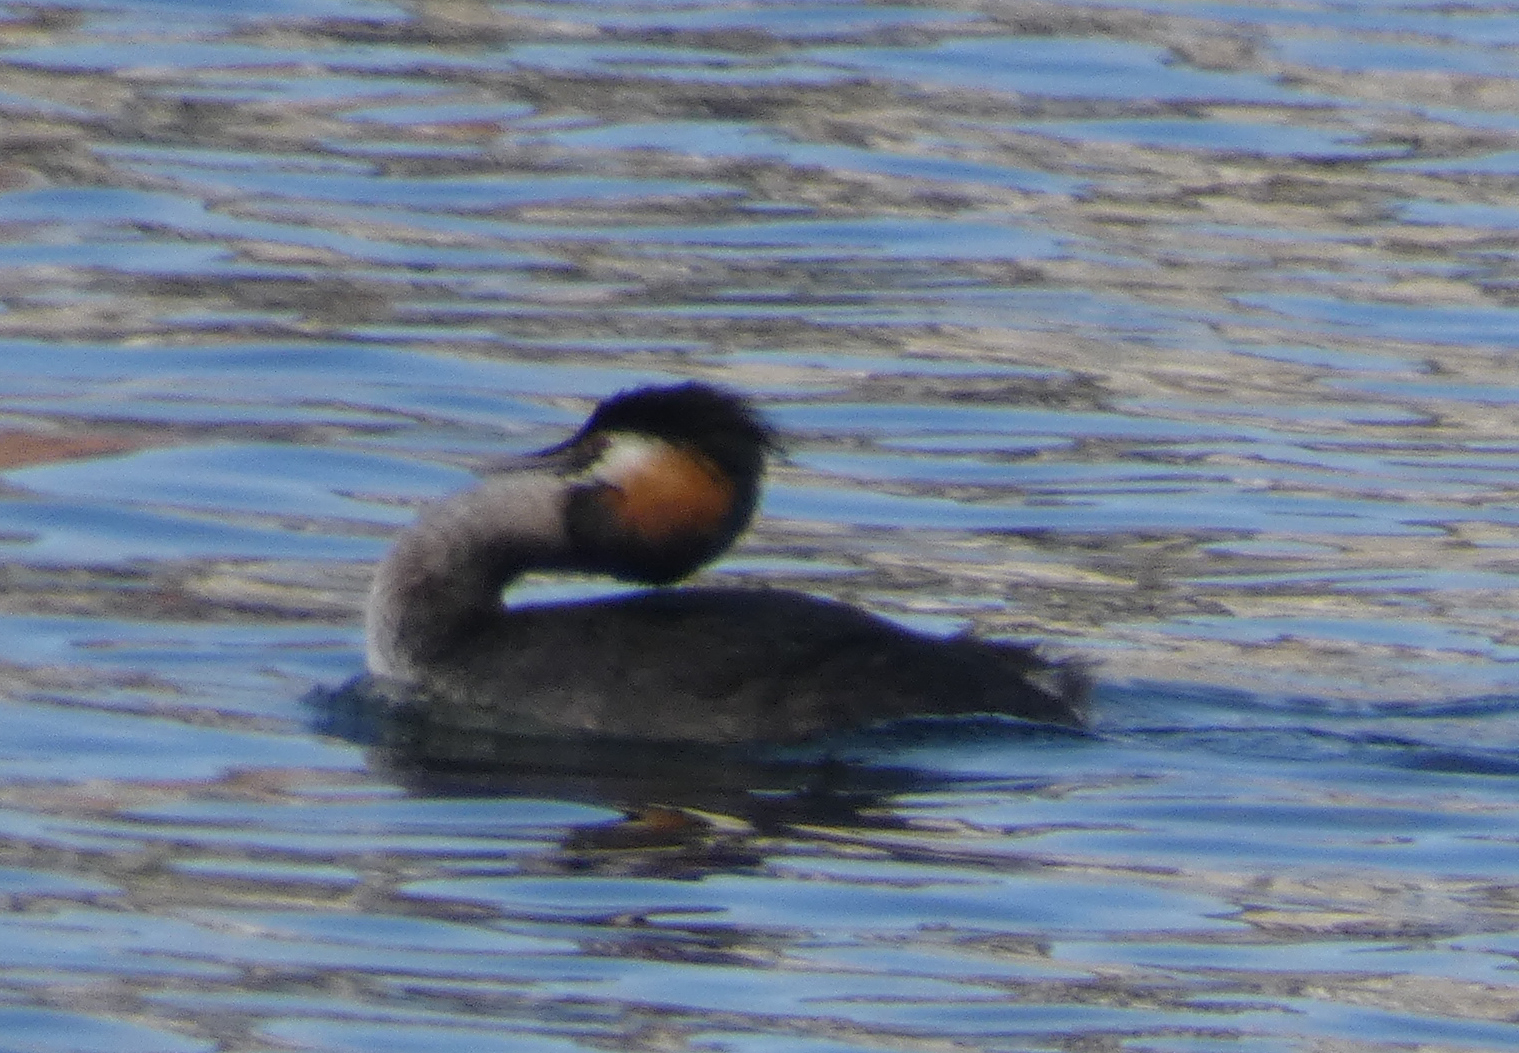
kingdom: Animalia
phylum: Chordata
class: Aves
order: Podicipediformes
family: Podicipedidae
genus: Podiceps
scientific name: Podiceps cristatus
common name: Great crested grebe
